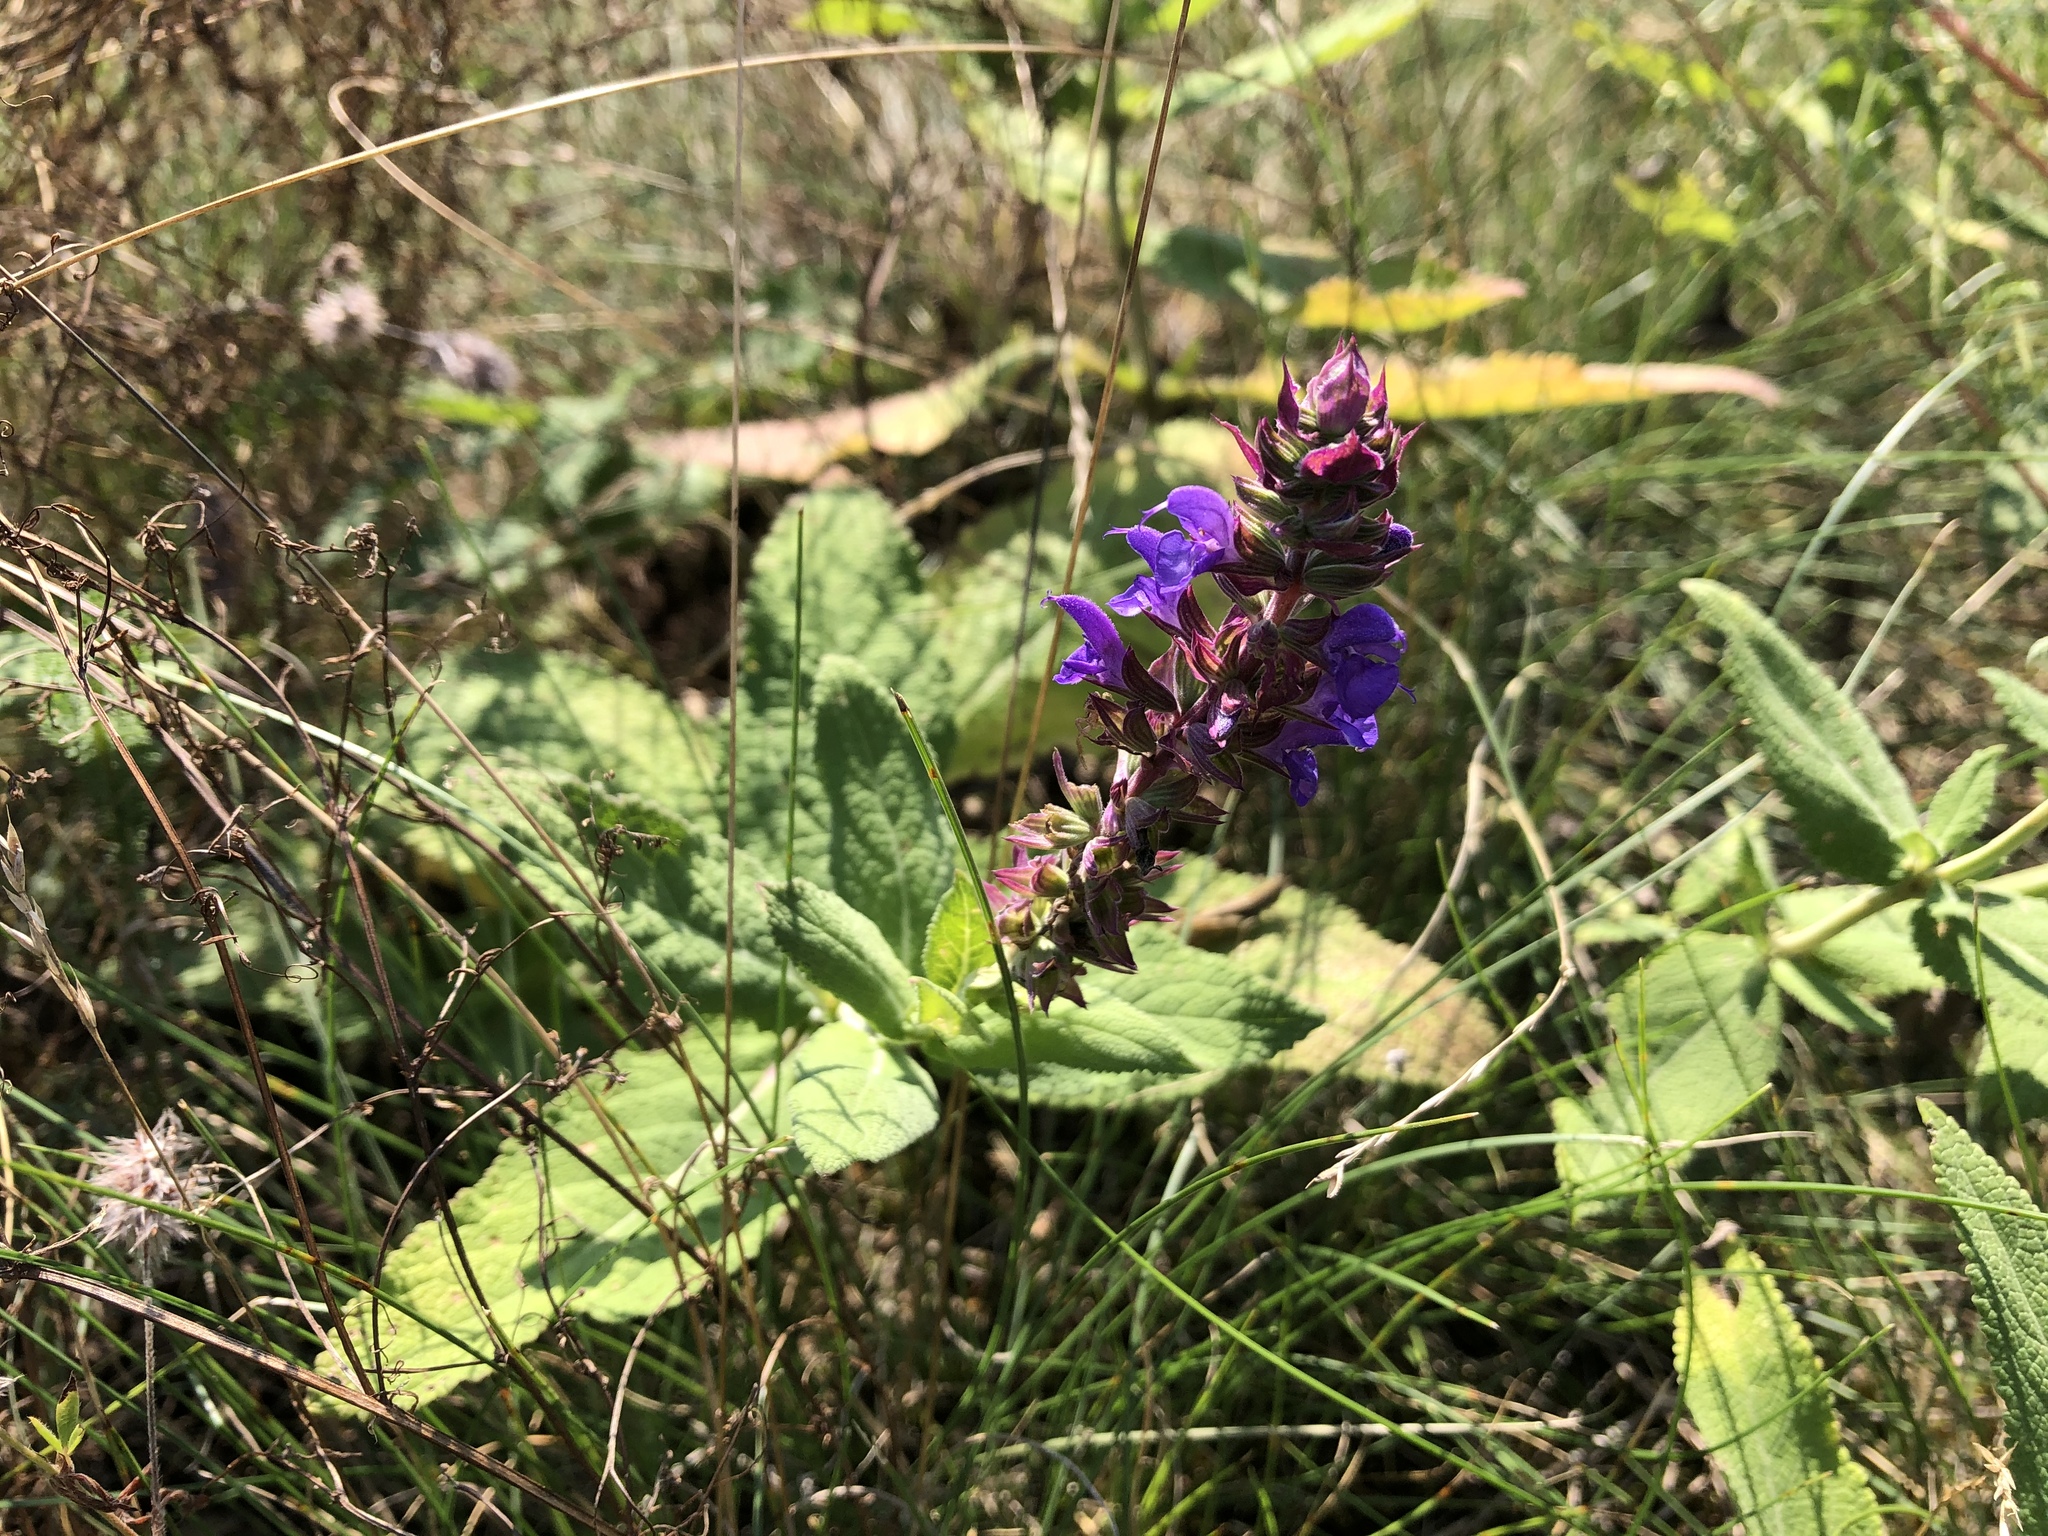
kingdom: Plantae
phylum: Tracheophyta
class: Magnoliopsida
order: Lamiales
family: Lamiaceae
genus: Salvia
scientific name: Salvia nemorosa
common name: Balkan clary
